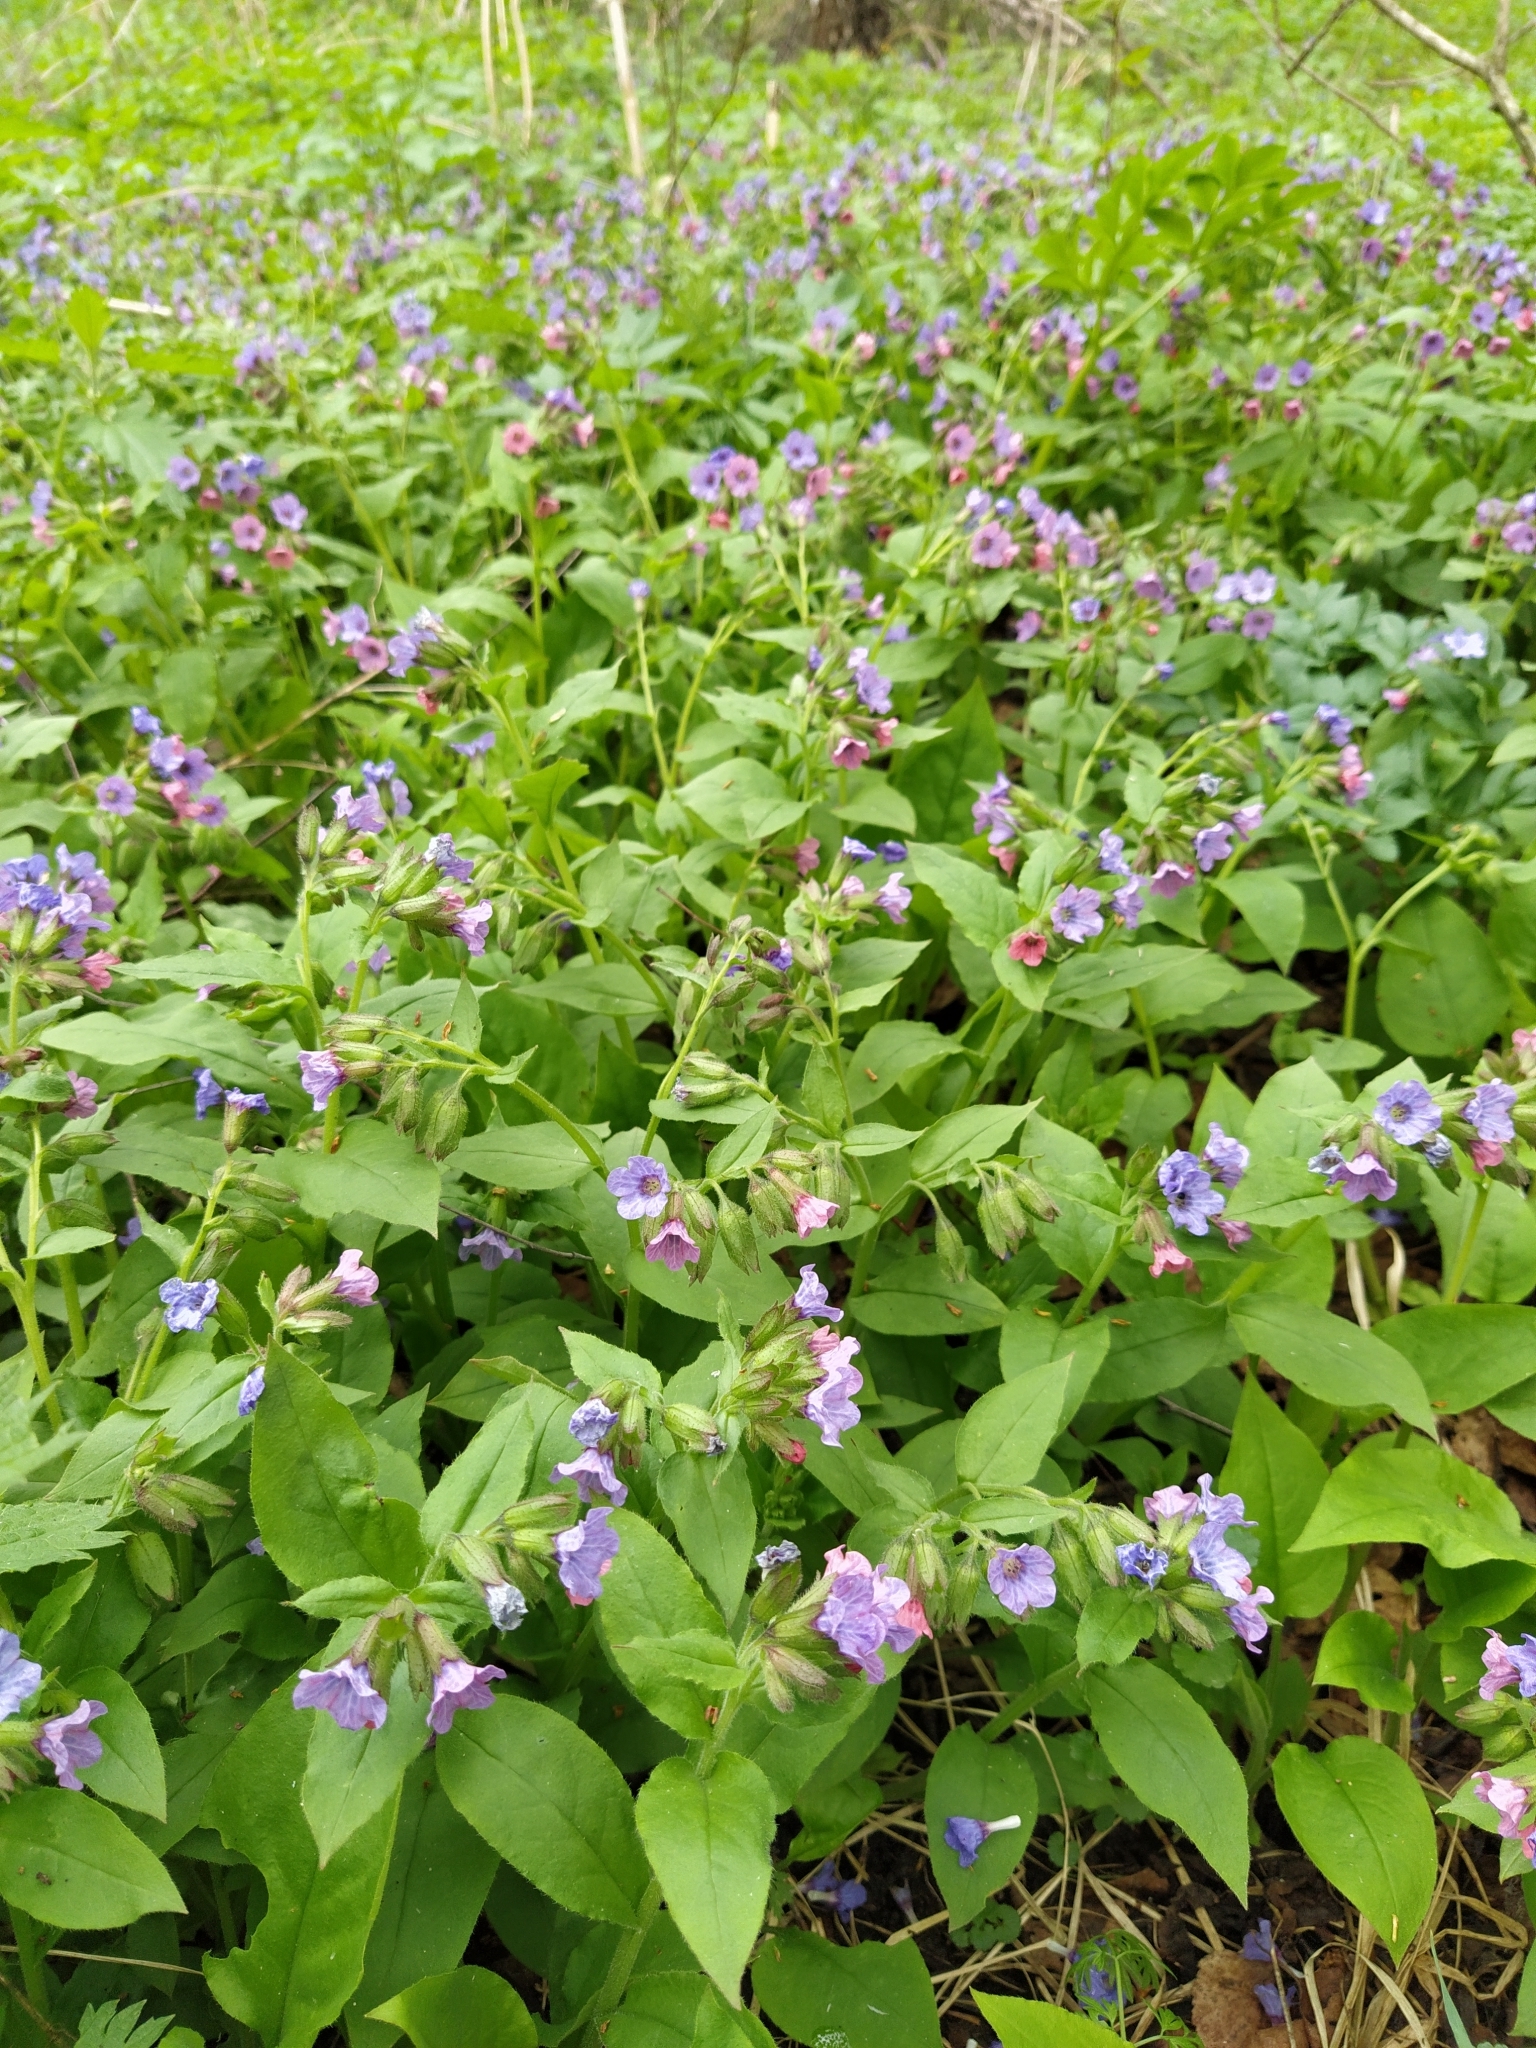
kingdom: Plantae
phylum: Tracheophyta
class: Magnoliopsida
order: Boraginales
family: Boraginaceae
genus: Pulmonaria
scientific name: Pulmonaria obscura
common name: Suffolk lungwort
